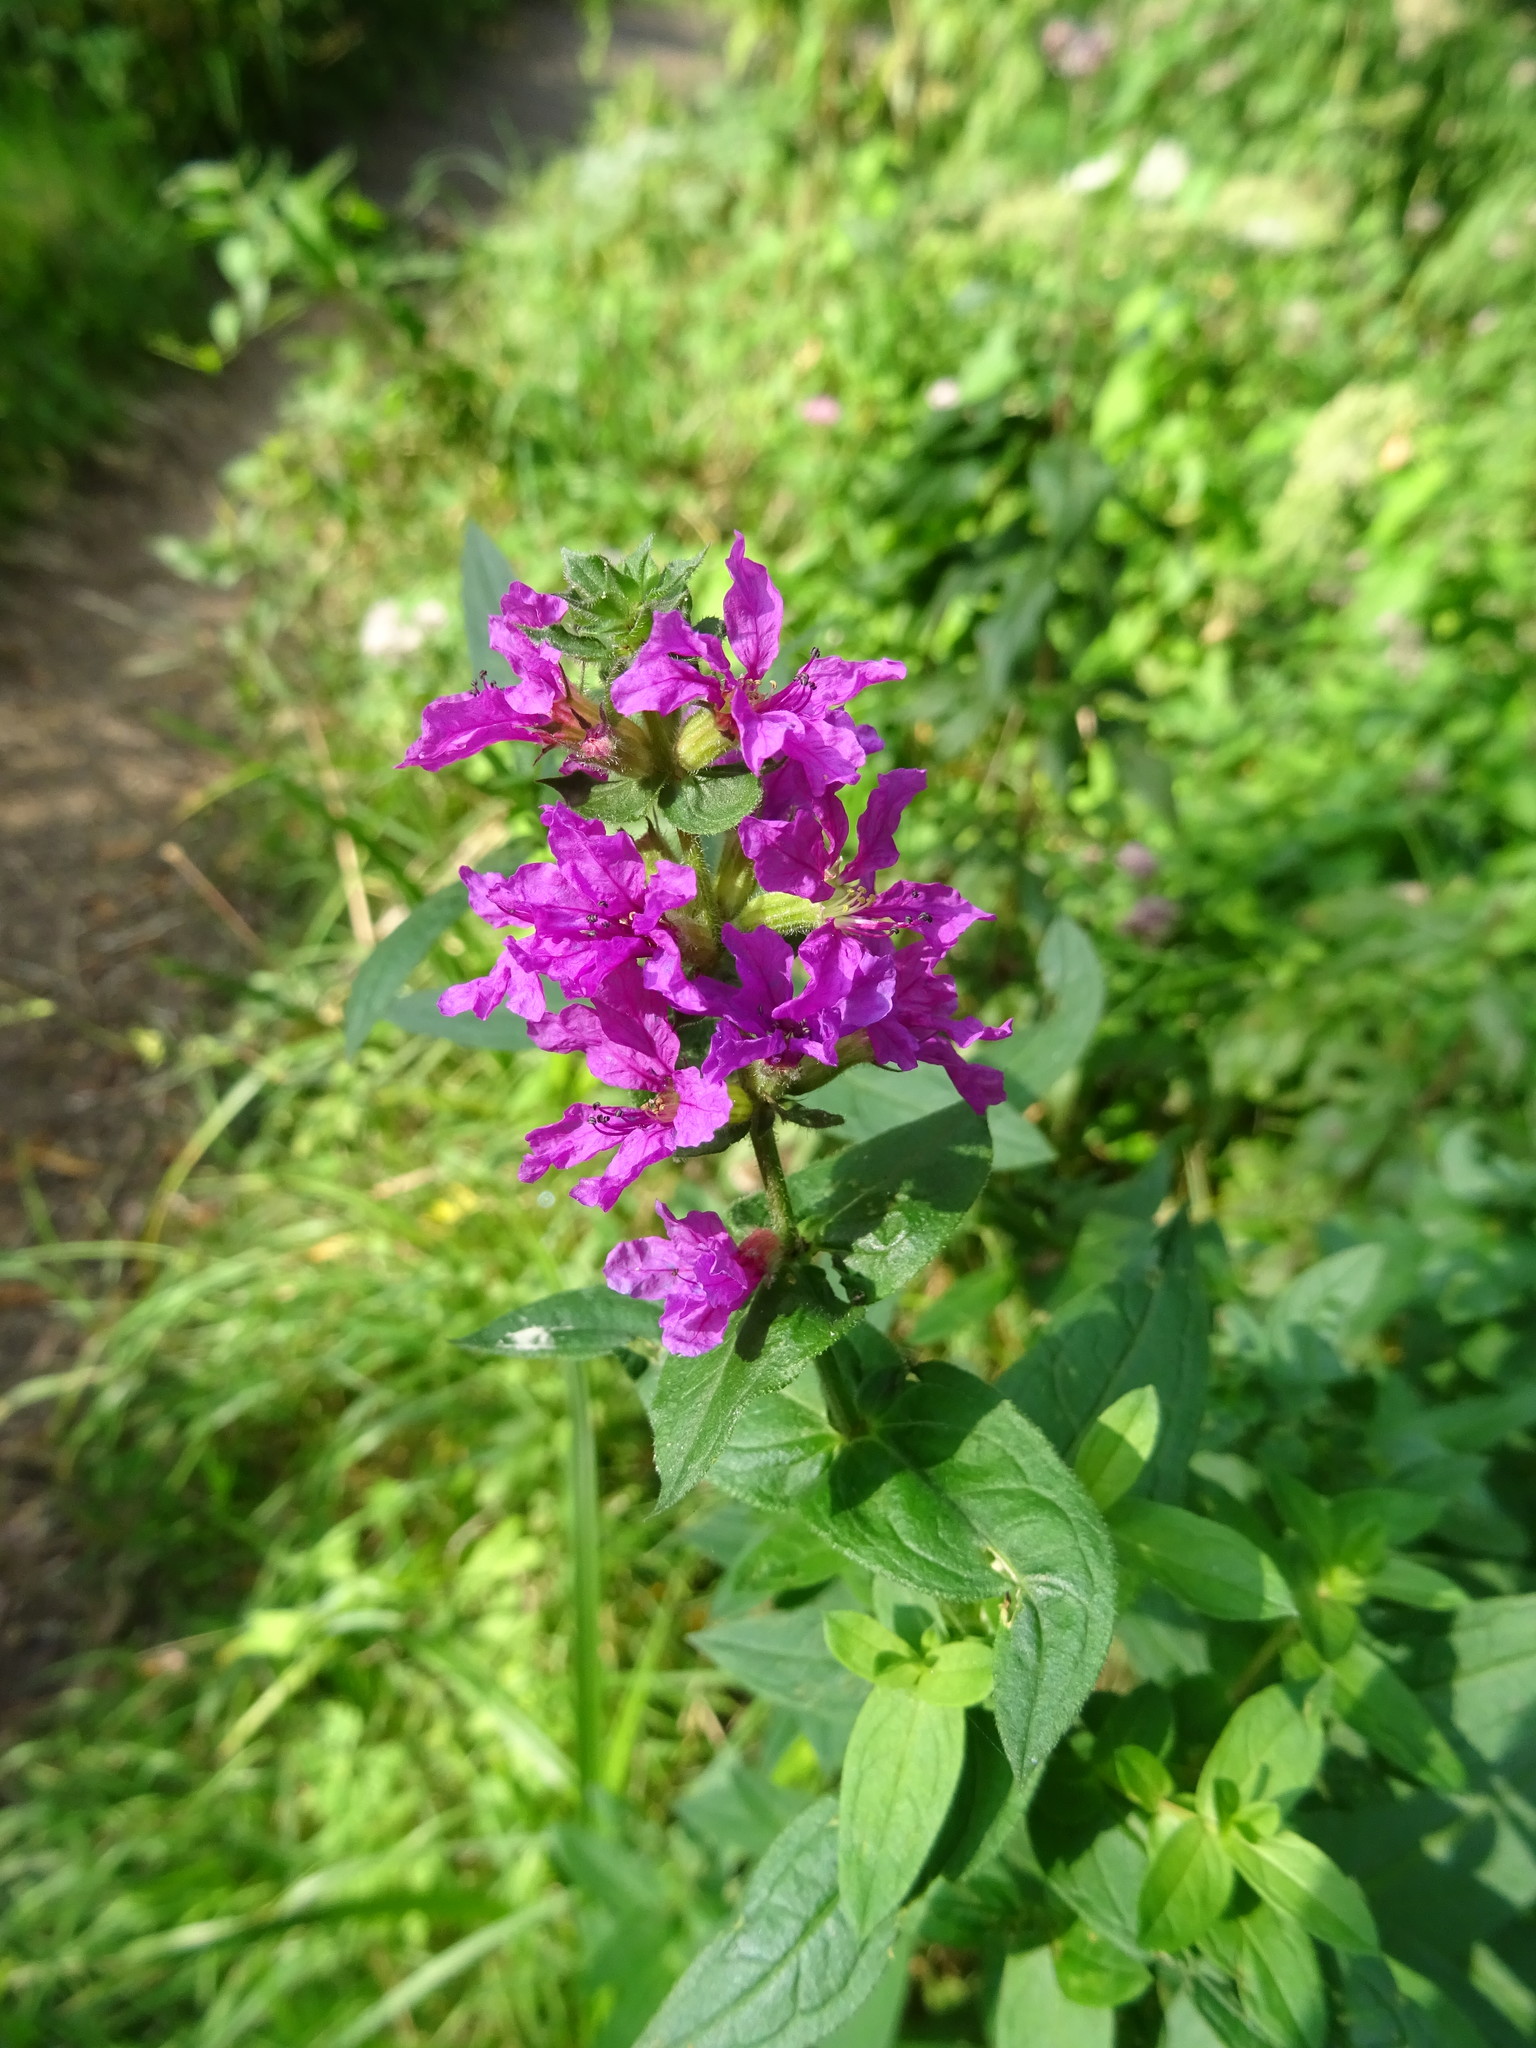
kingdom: Plantae
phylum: Tracheophyta
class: Magnoliopsida
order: Myrtales
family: Lythraceae
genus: Lythrum
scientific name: Lythrum salicaria
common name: Purple loosestrife
